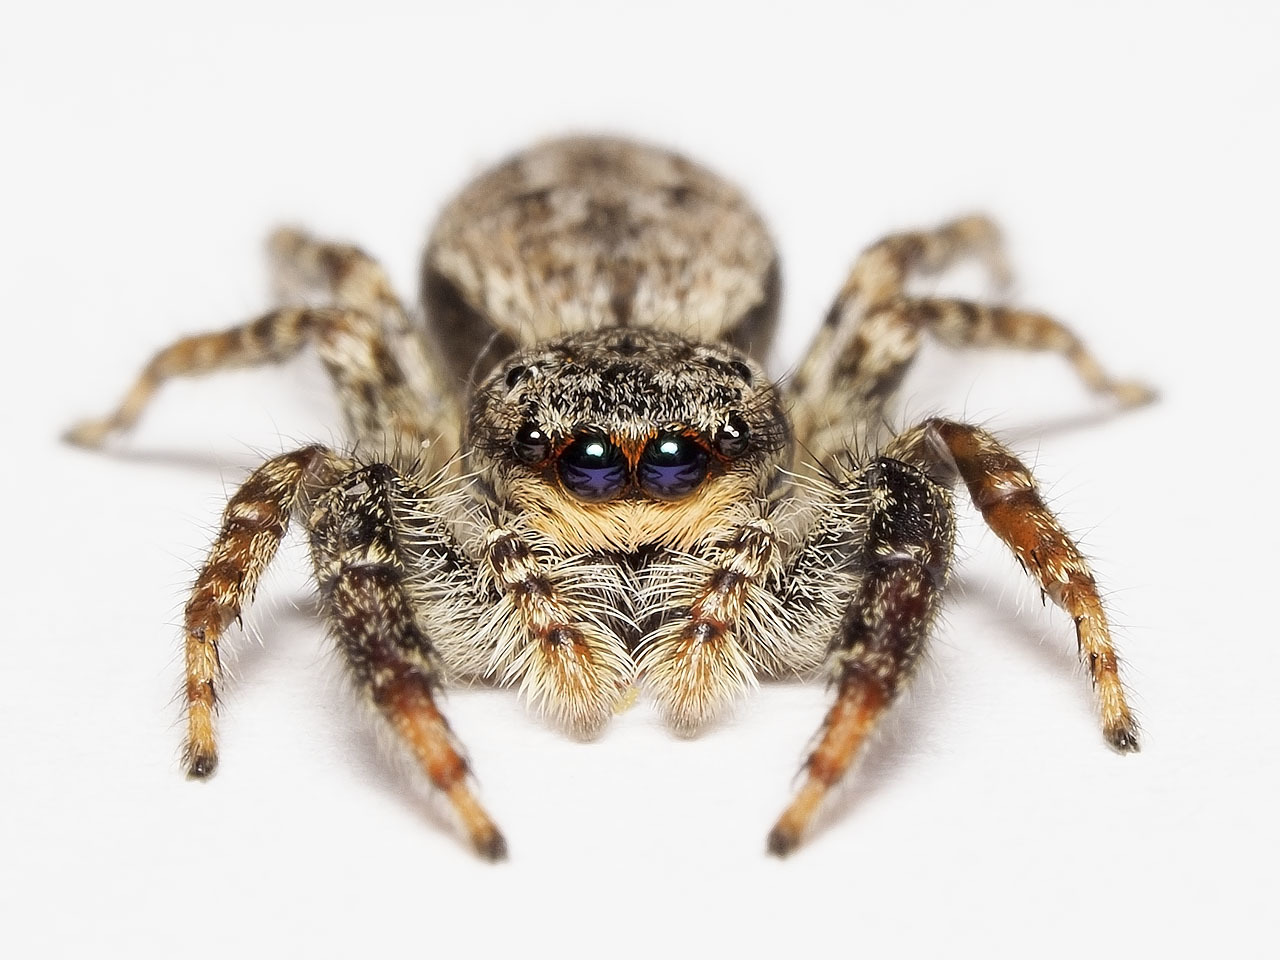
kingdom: Animalia
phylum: Arthropoda
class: Arachnida
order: Araneae
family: Salticidae
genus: Marpissa
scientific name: Marpissa muscosa
